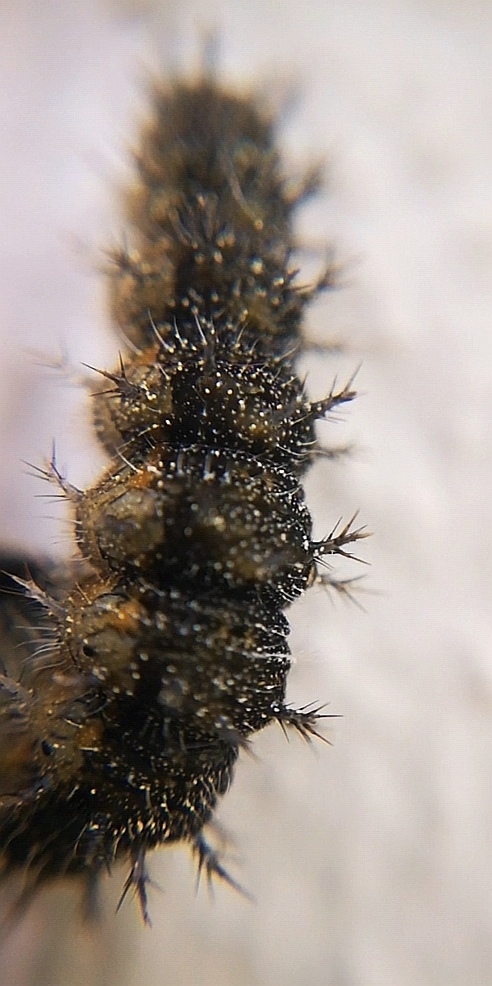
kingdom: Animalia
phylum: Arthropoda
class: Insecta
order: Lepidoptera
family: Nymphalidae
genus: Aglais
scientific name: Aglais urticae
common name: Small tortoiseshell
